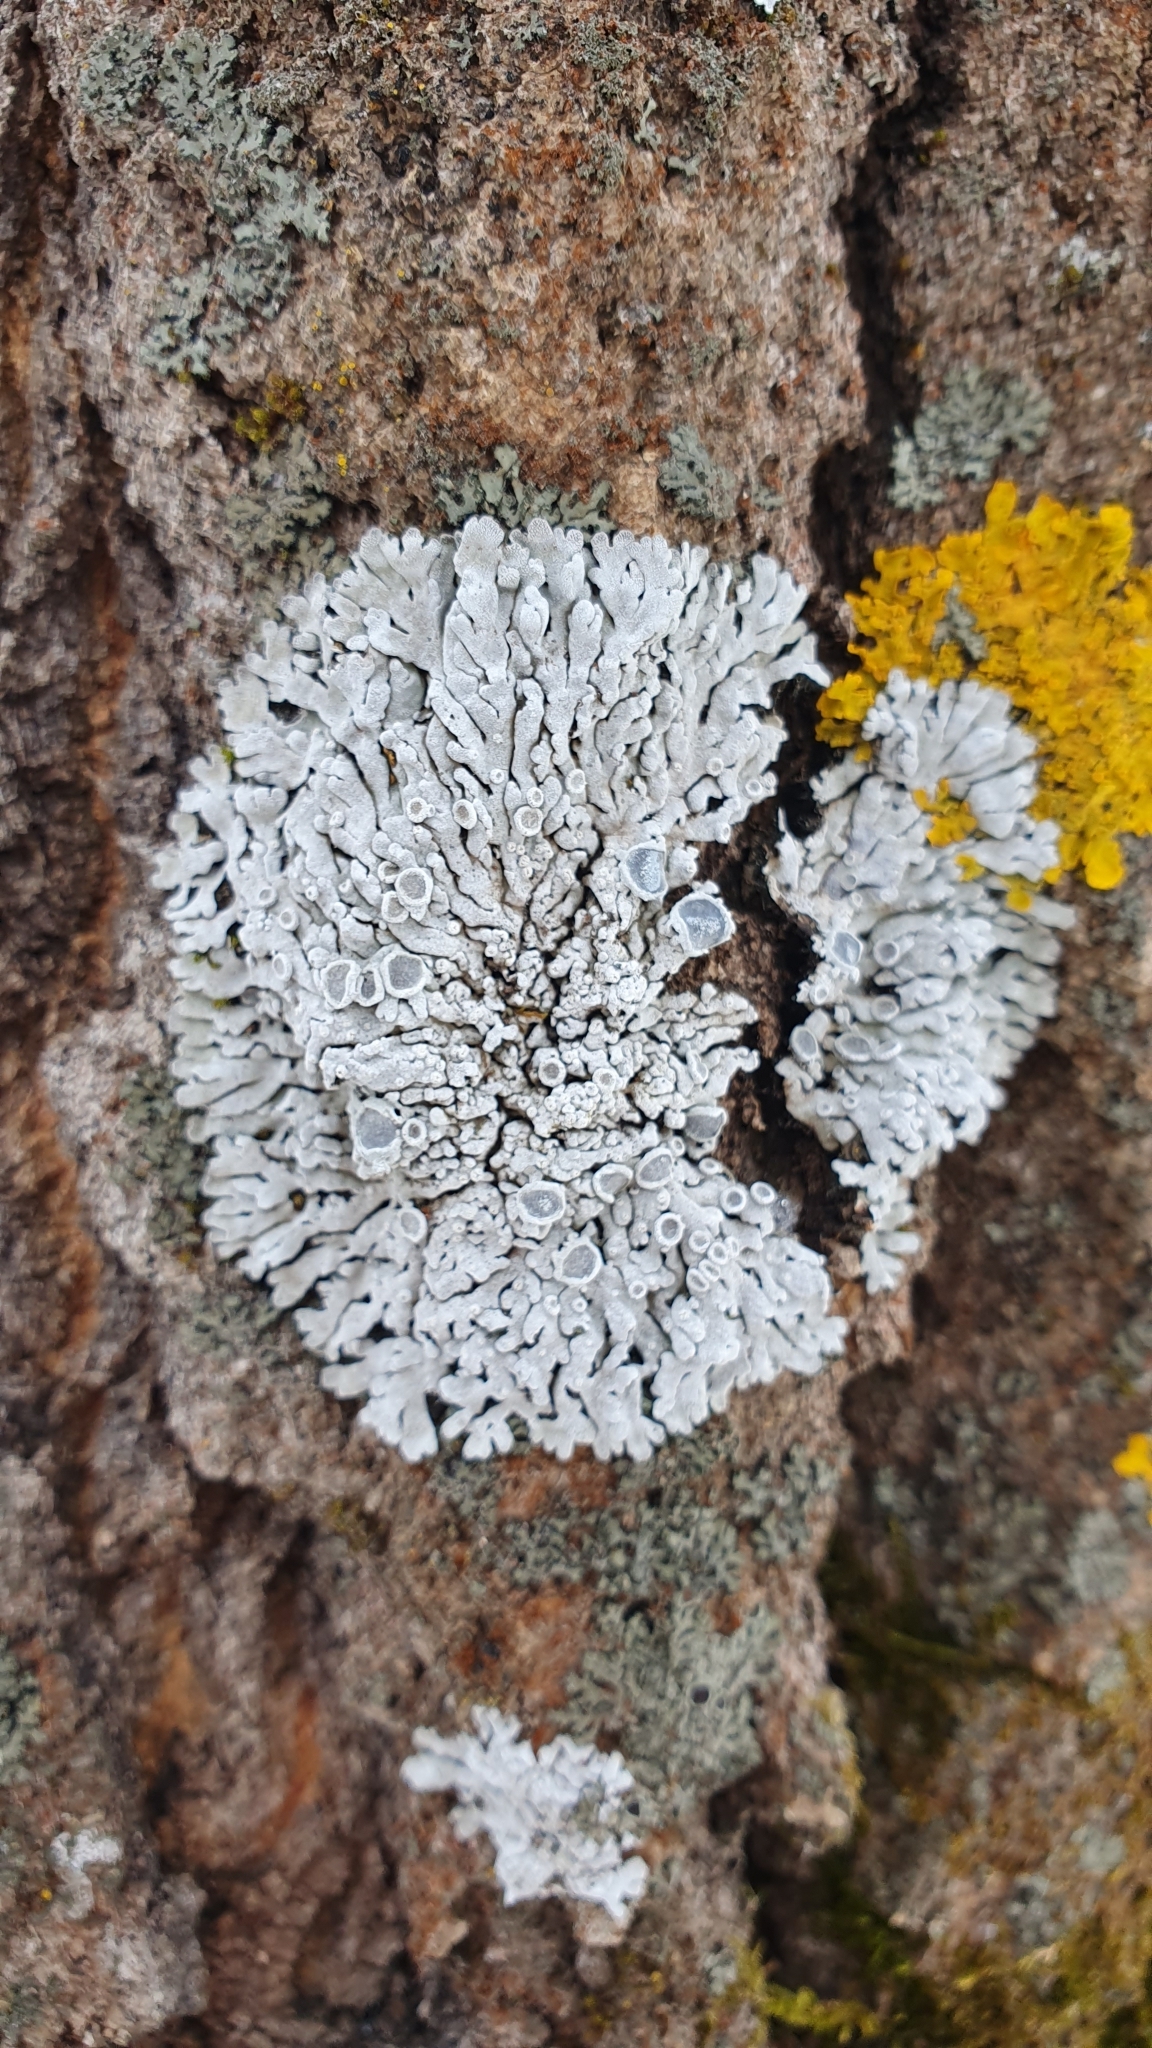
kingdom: Fungi
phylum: Ascomycota
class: Lecanoromycetes
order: Caliciales
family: Physciaceae
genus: Physconia
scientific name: Physconia distorta
